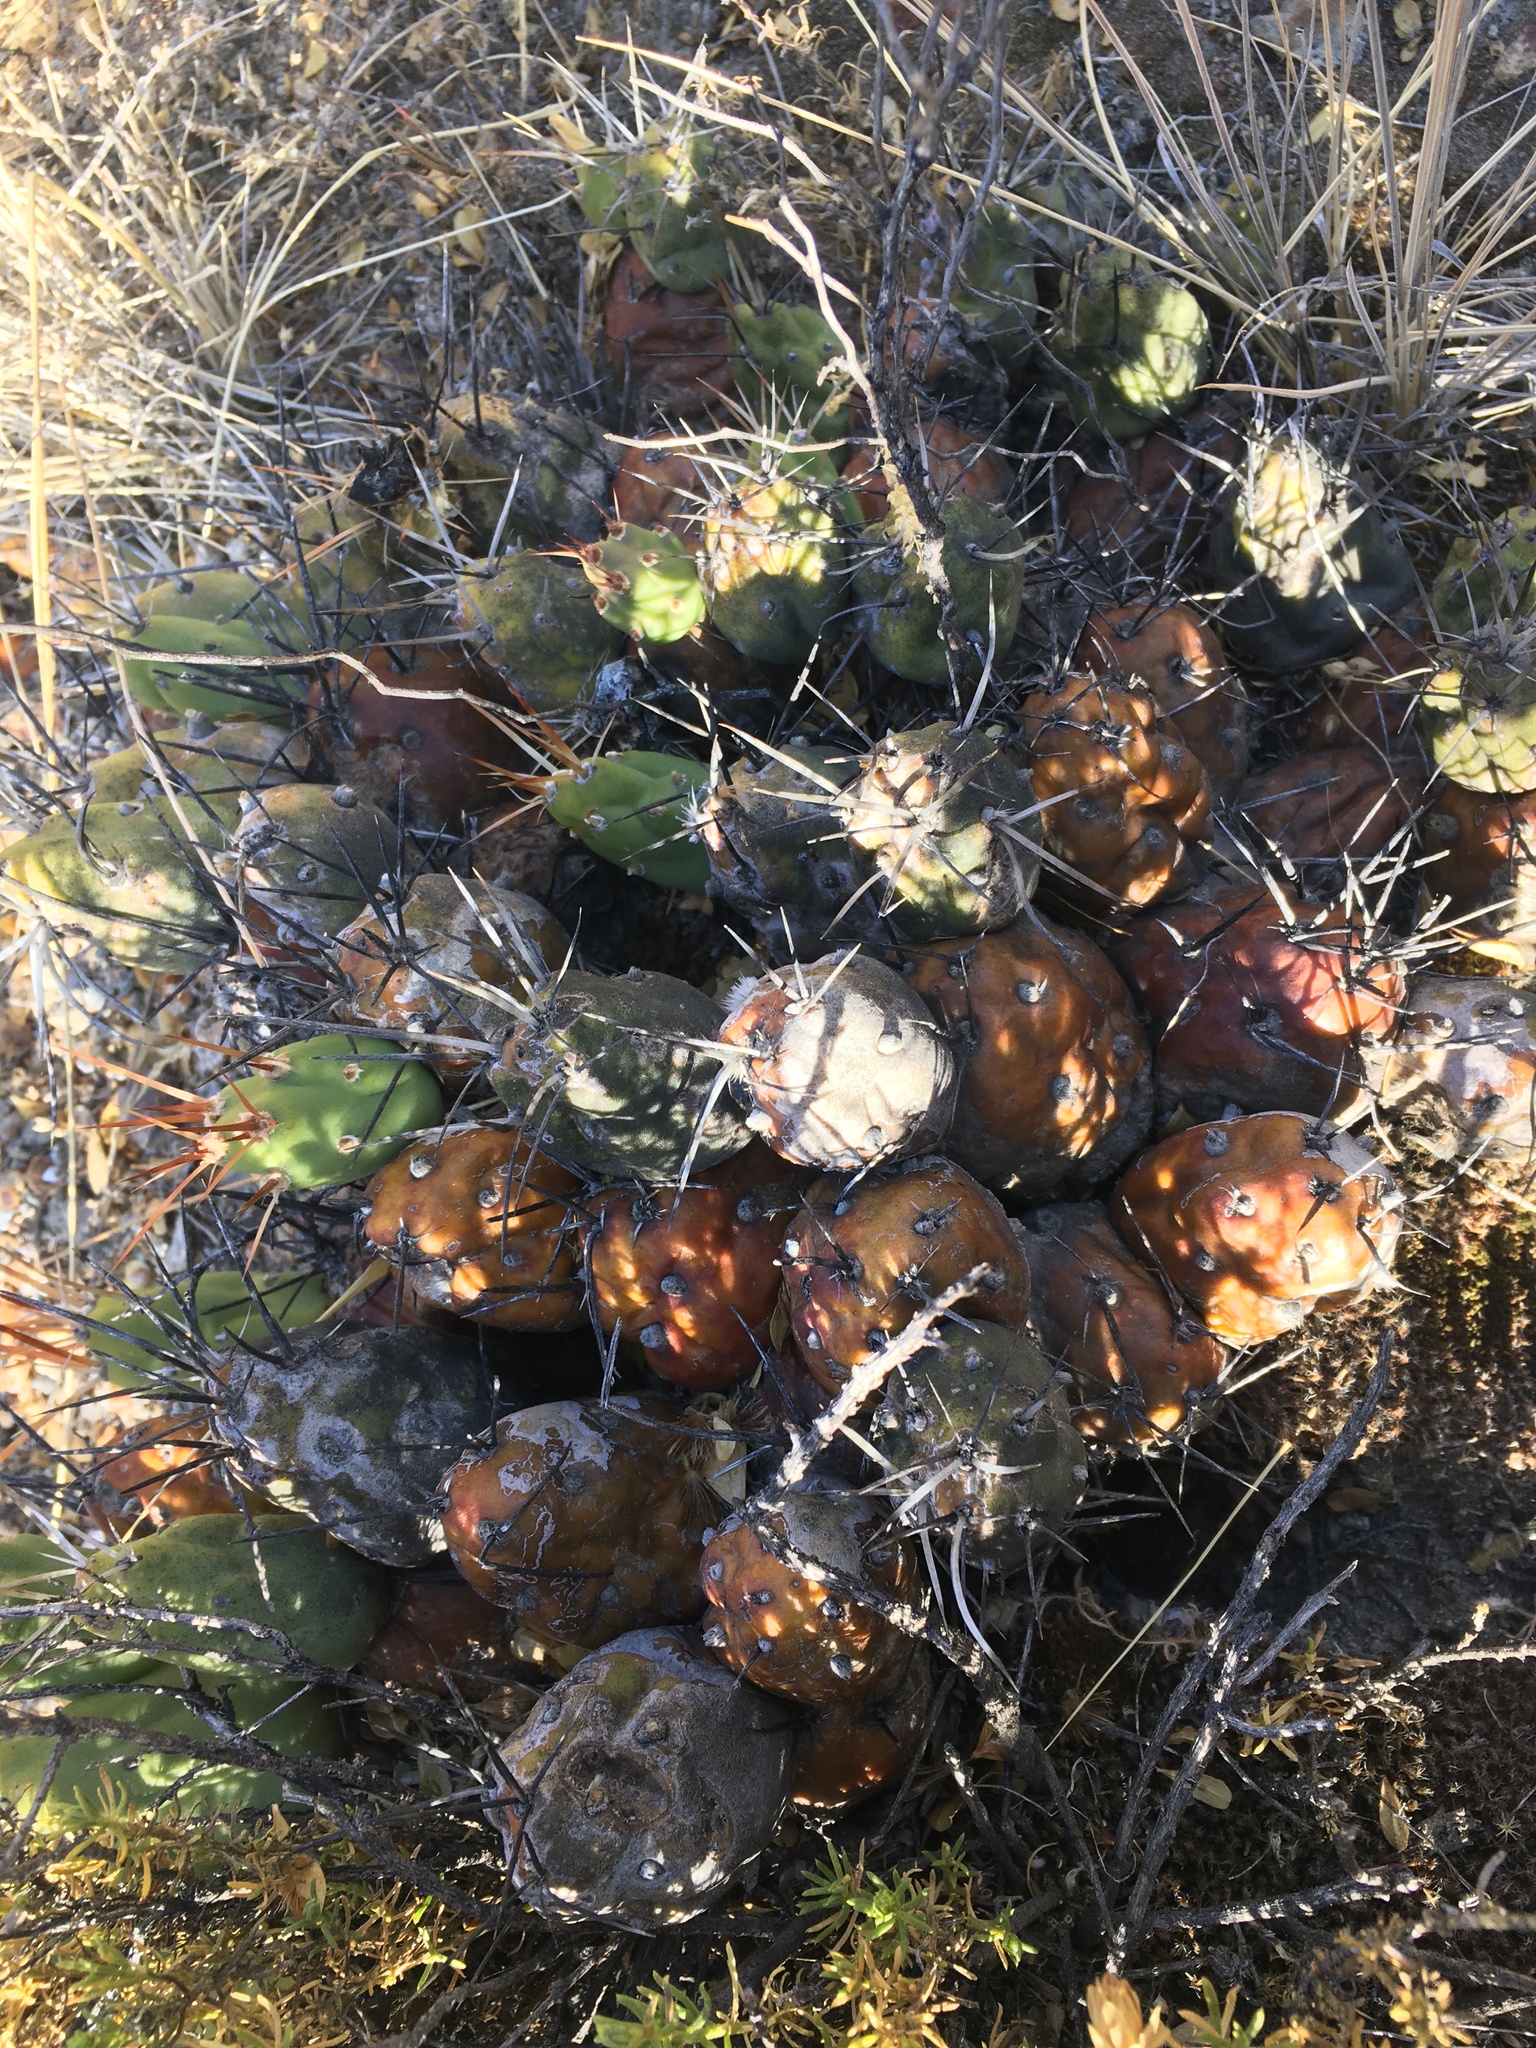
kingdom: Plantae
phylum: Tracheophyta
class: Magnoliopsida
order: Caryophyllales
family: Cactaceae
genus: Cumulopuntia
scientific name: Cumulopuntia boliviana
